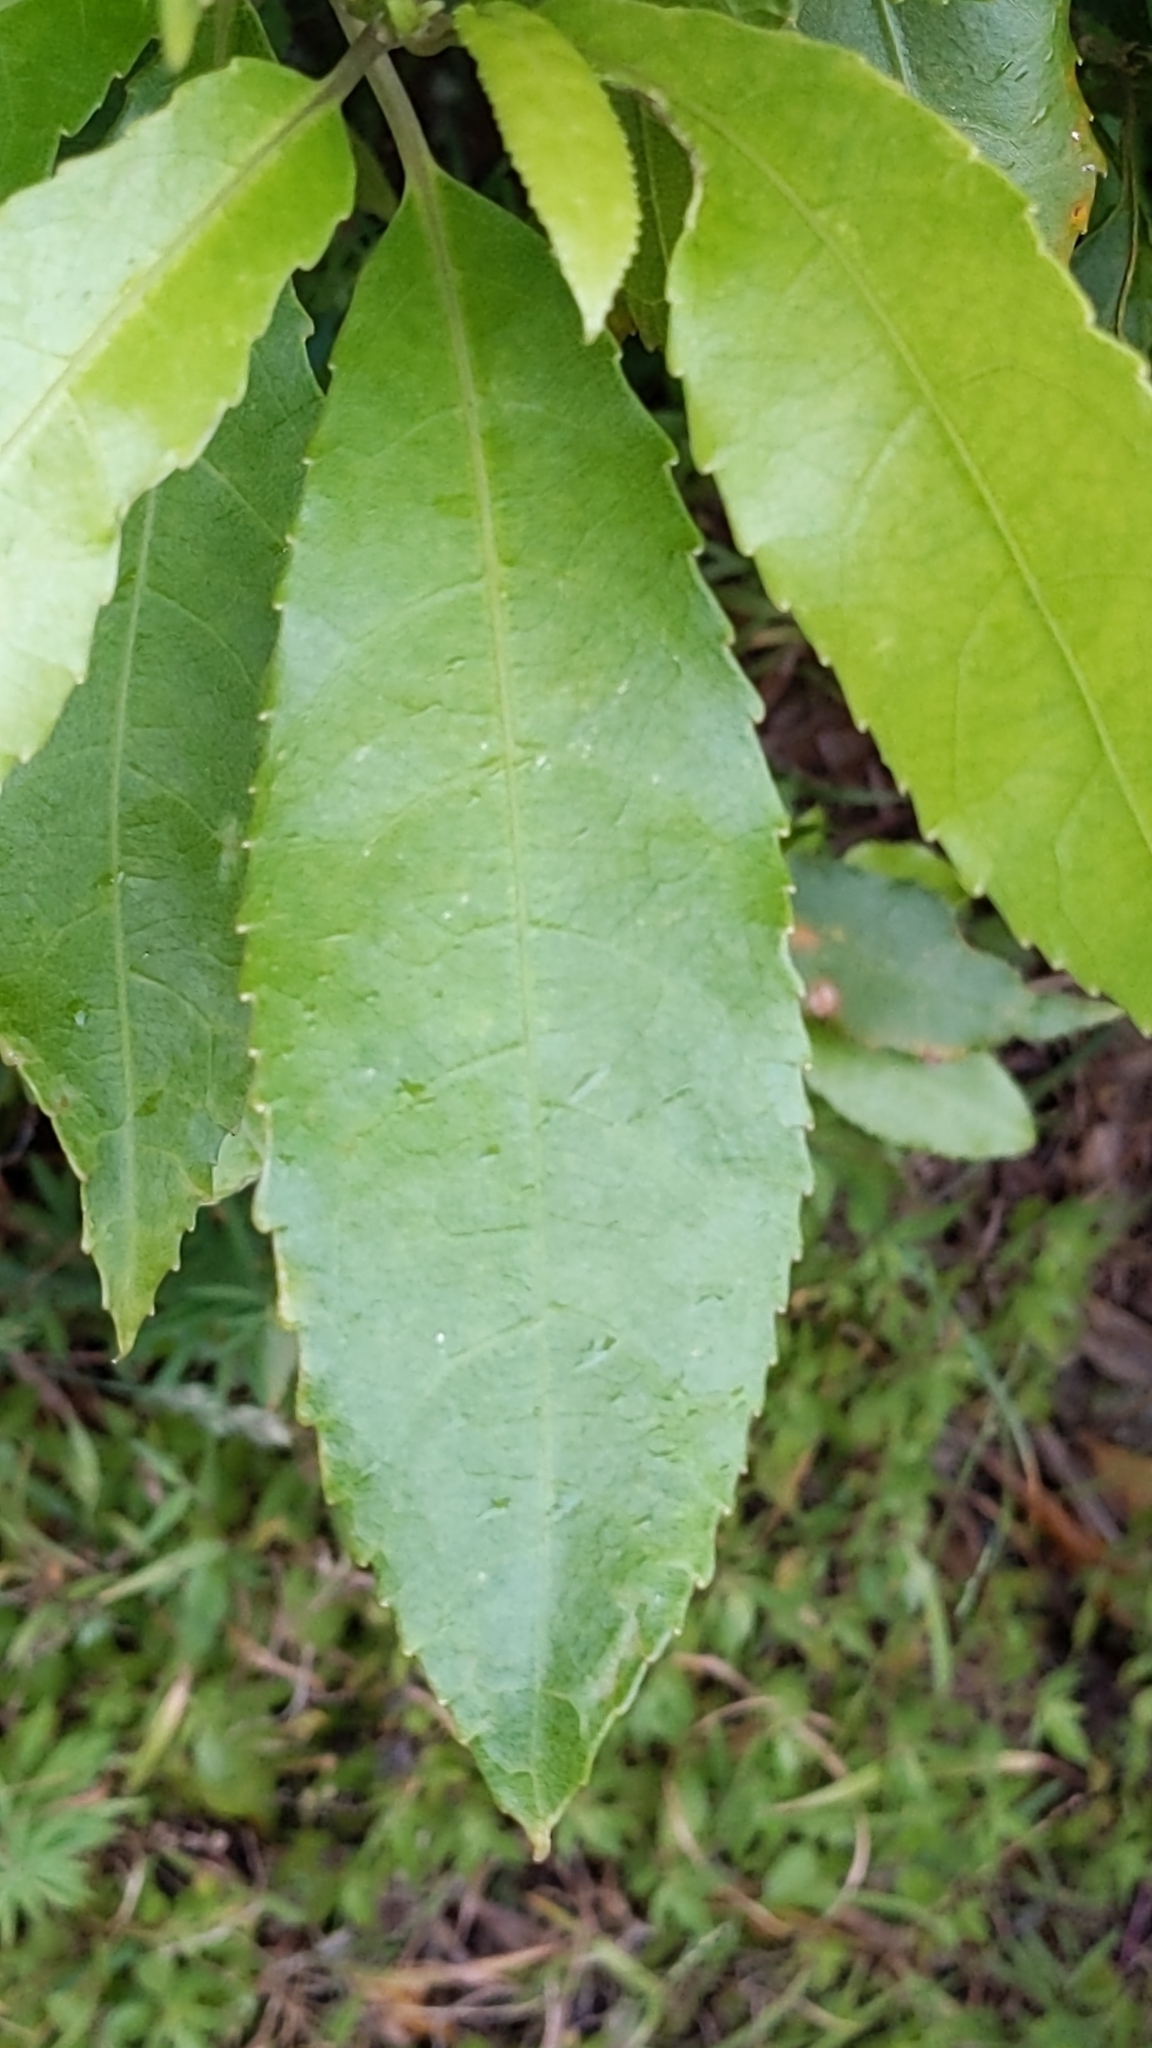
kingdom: Plantae
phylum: Tracheophyta
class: Magnoliopsida
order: Malpighiales
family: Violaceae
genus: Melicytus
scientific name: Melicytus ramiflorus
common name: Mahoe
